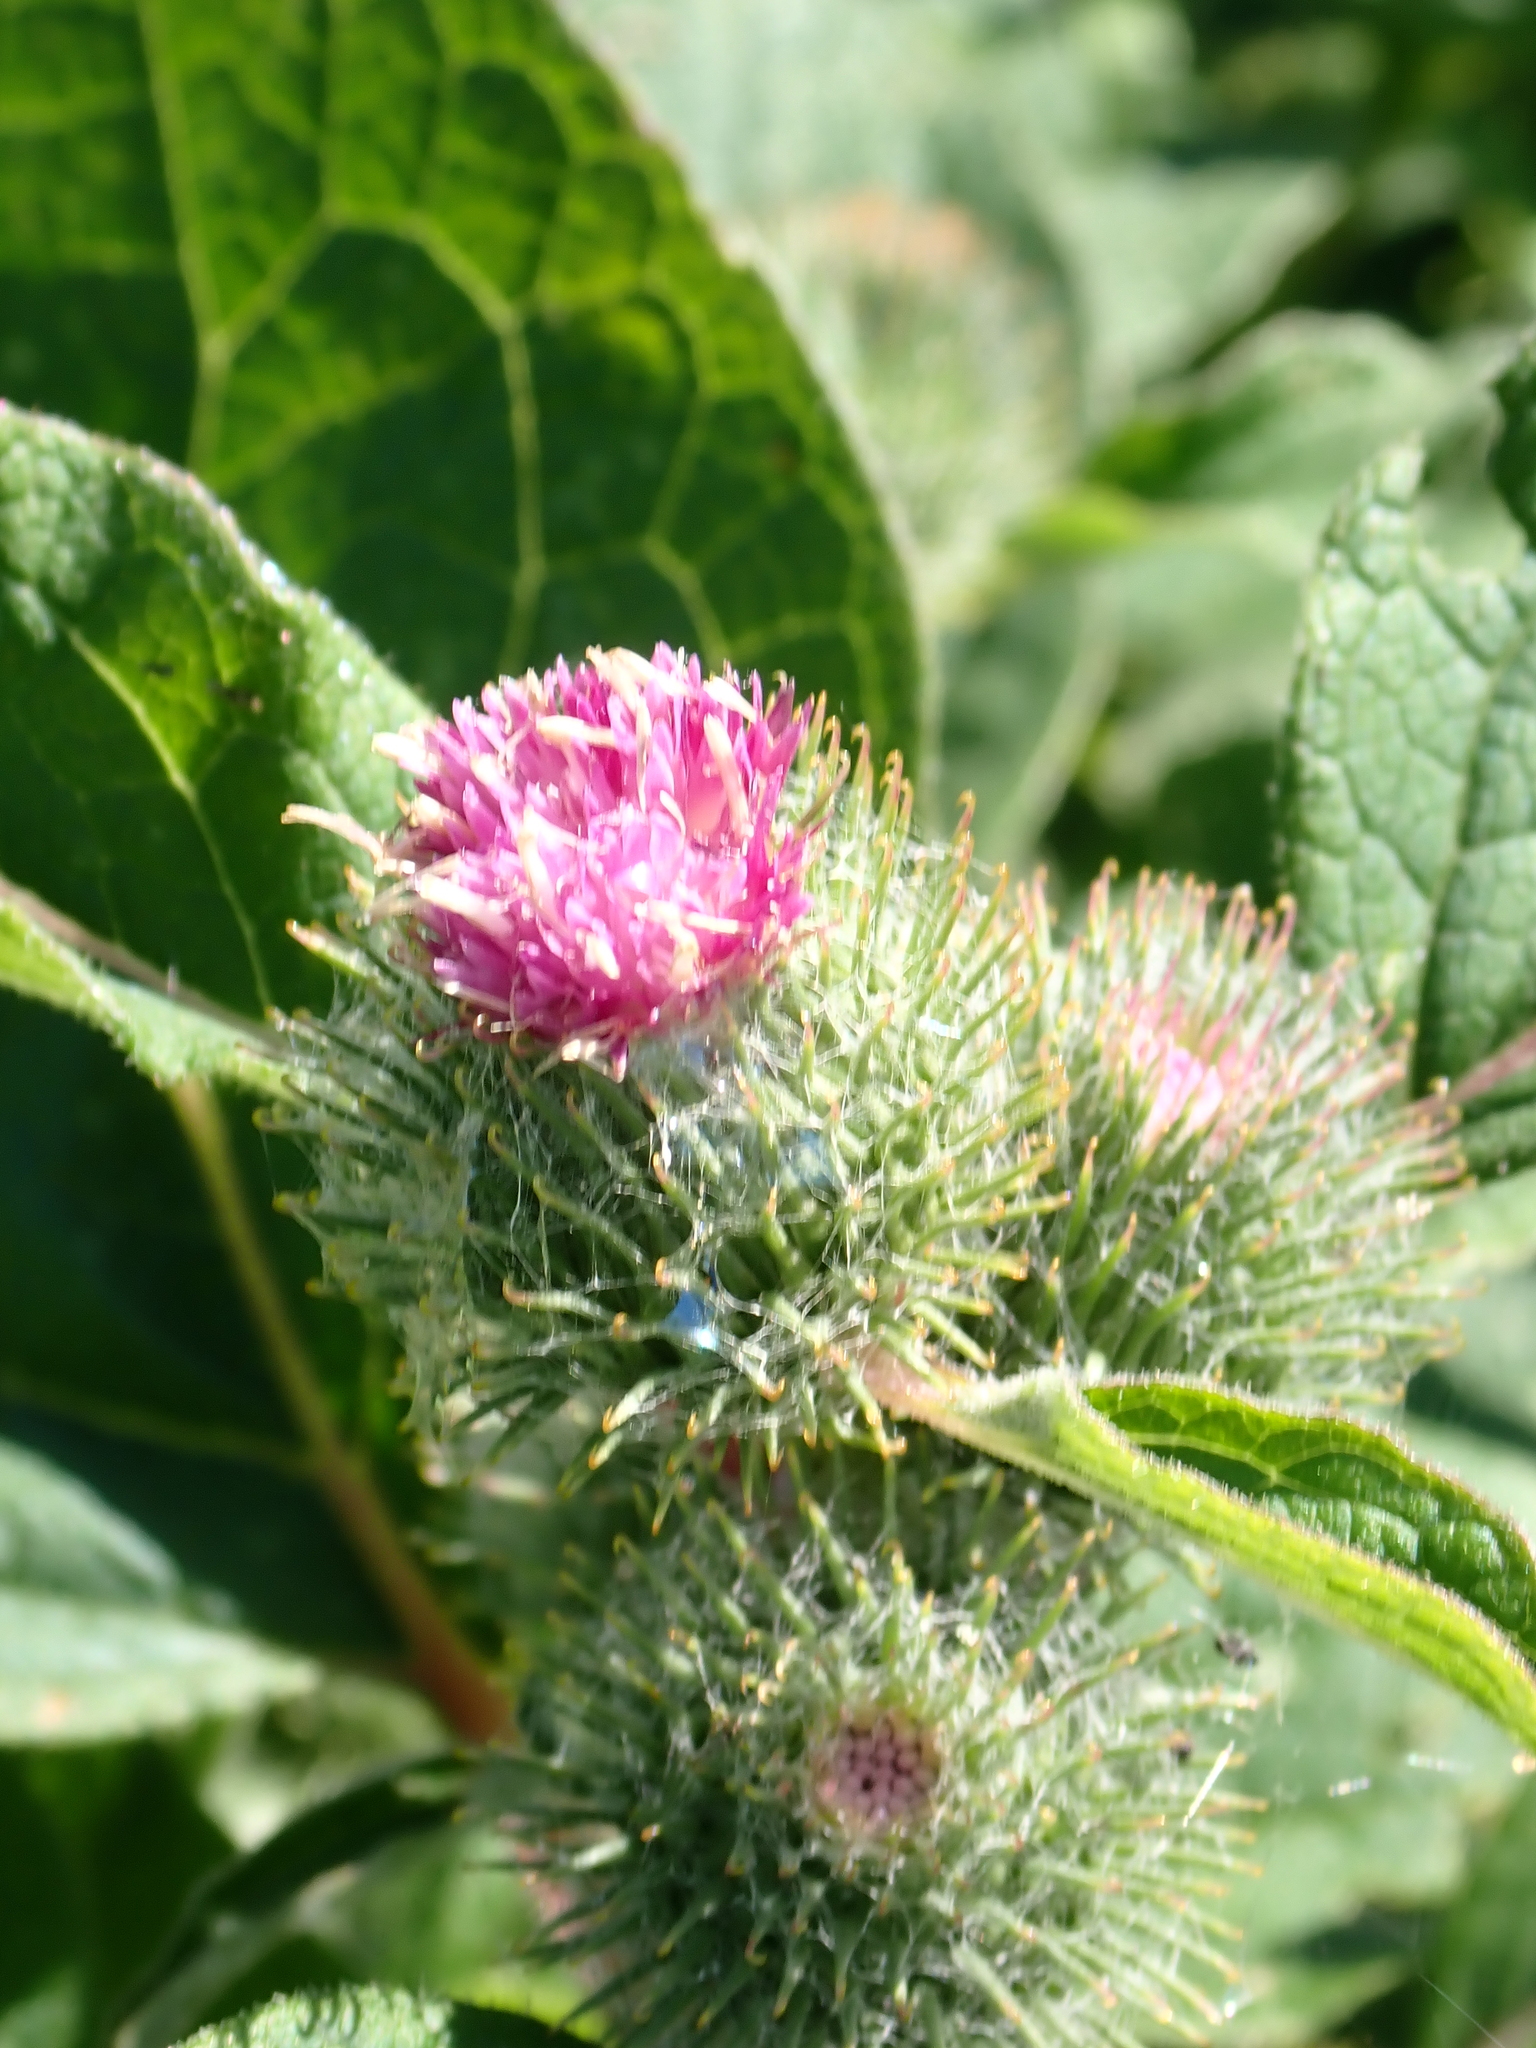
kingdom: Plantae
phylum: Tracheophyta
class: Magnoliopsida
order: Asterales
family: Asteraceae
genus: Arctium
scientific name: Arctium minus
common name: Lesser burdock
